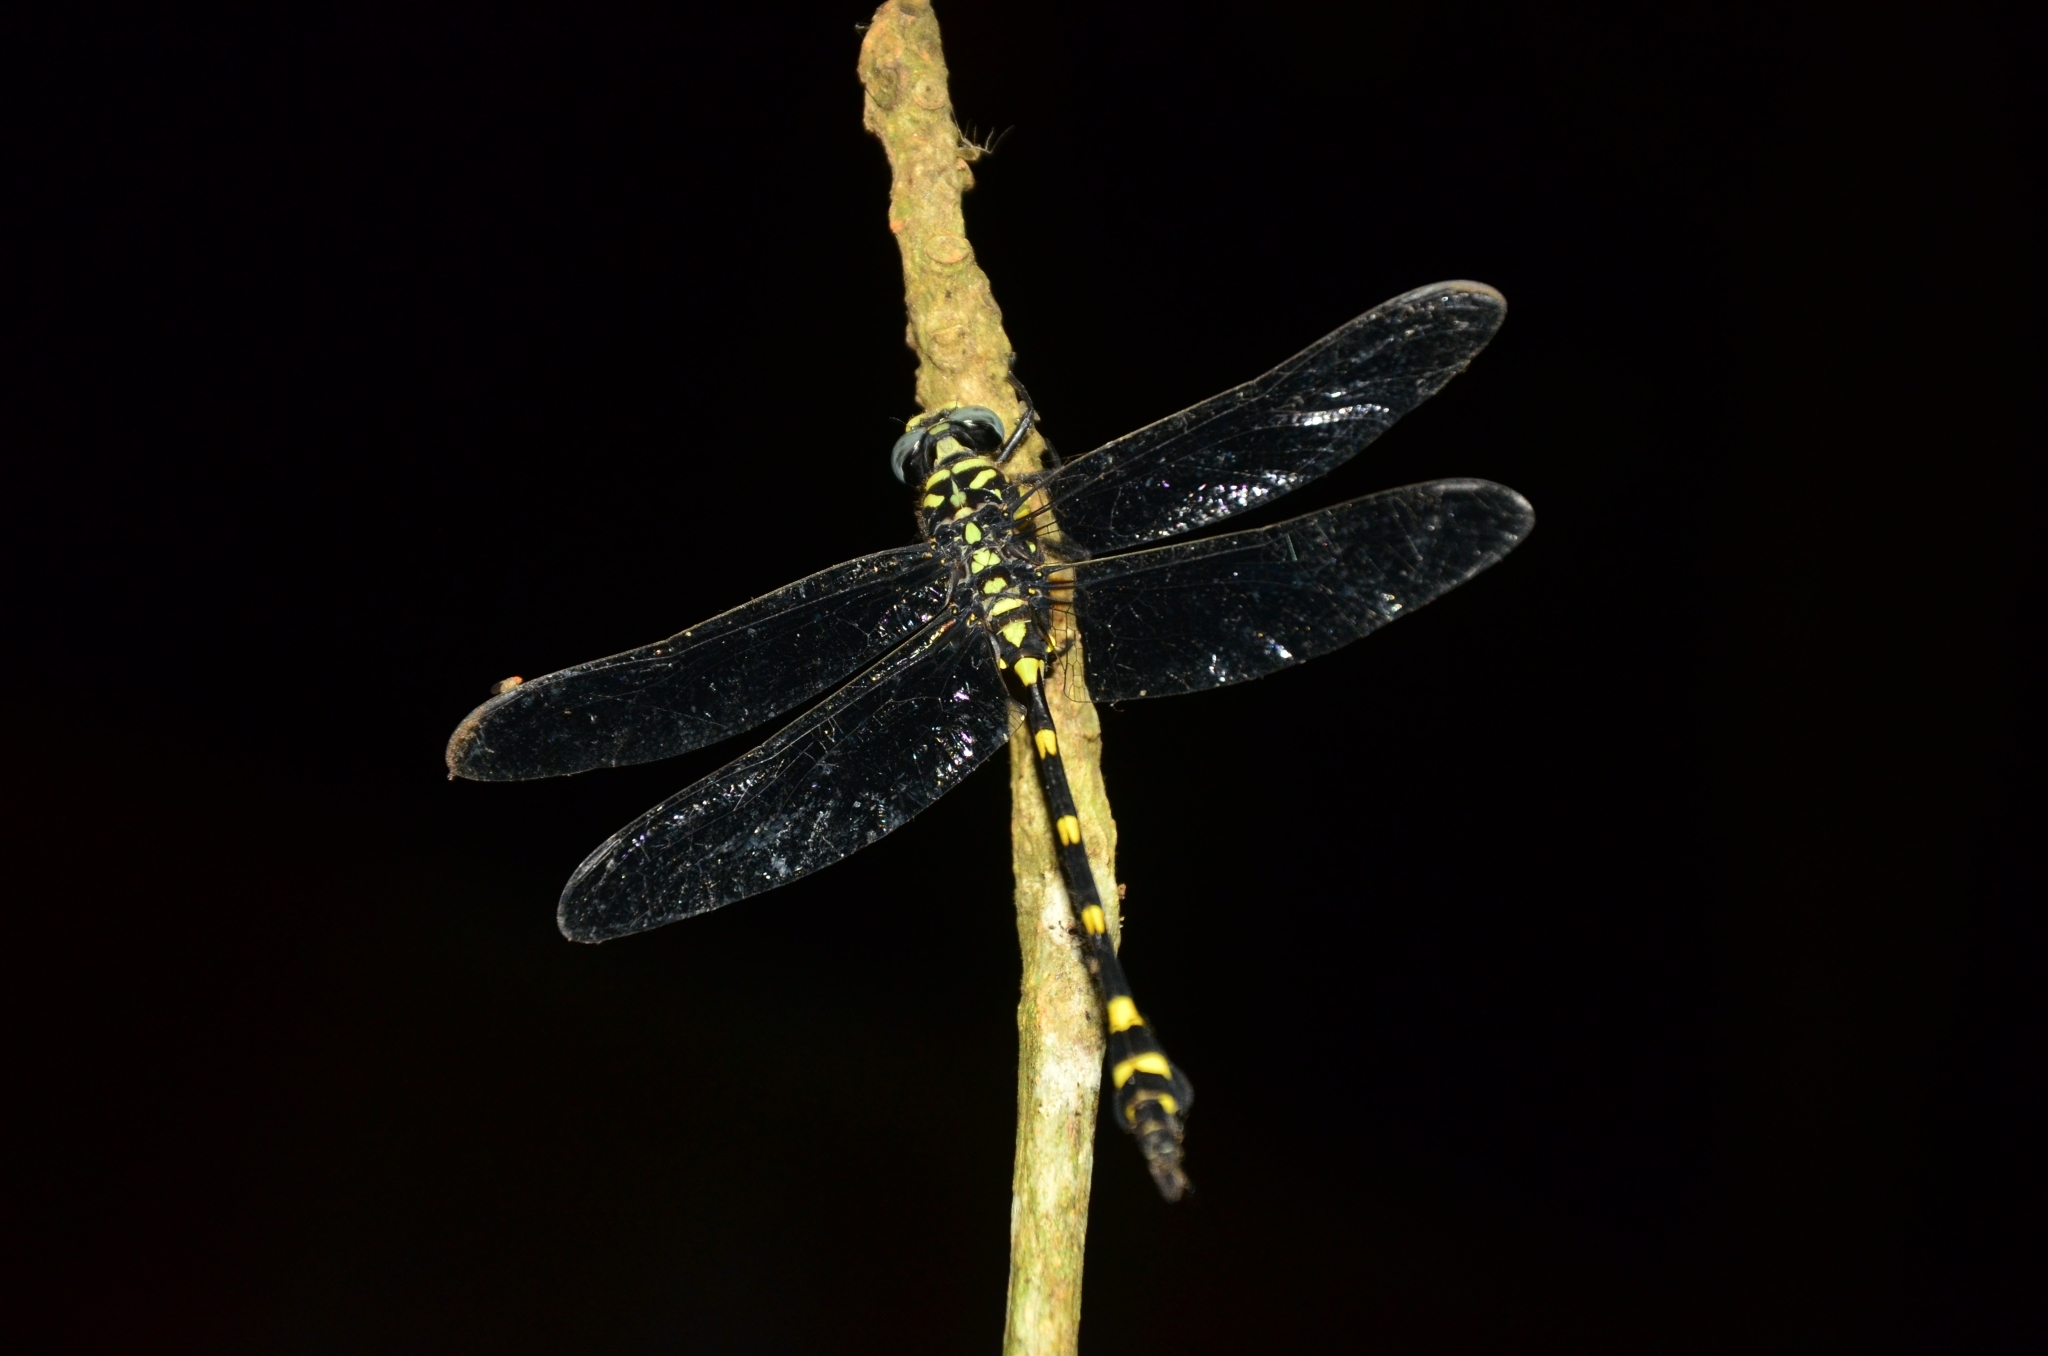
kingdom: Animalia
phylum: Arthropoda
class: Insecta
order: Odonata
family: Gomphidae
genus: Ictinogomphus
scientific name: Ictinogomphus rapax
